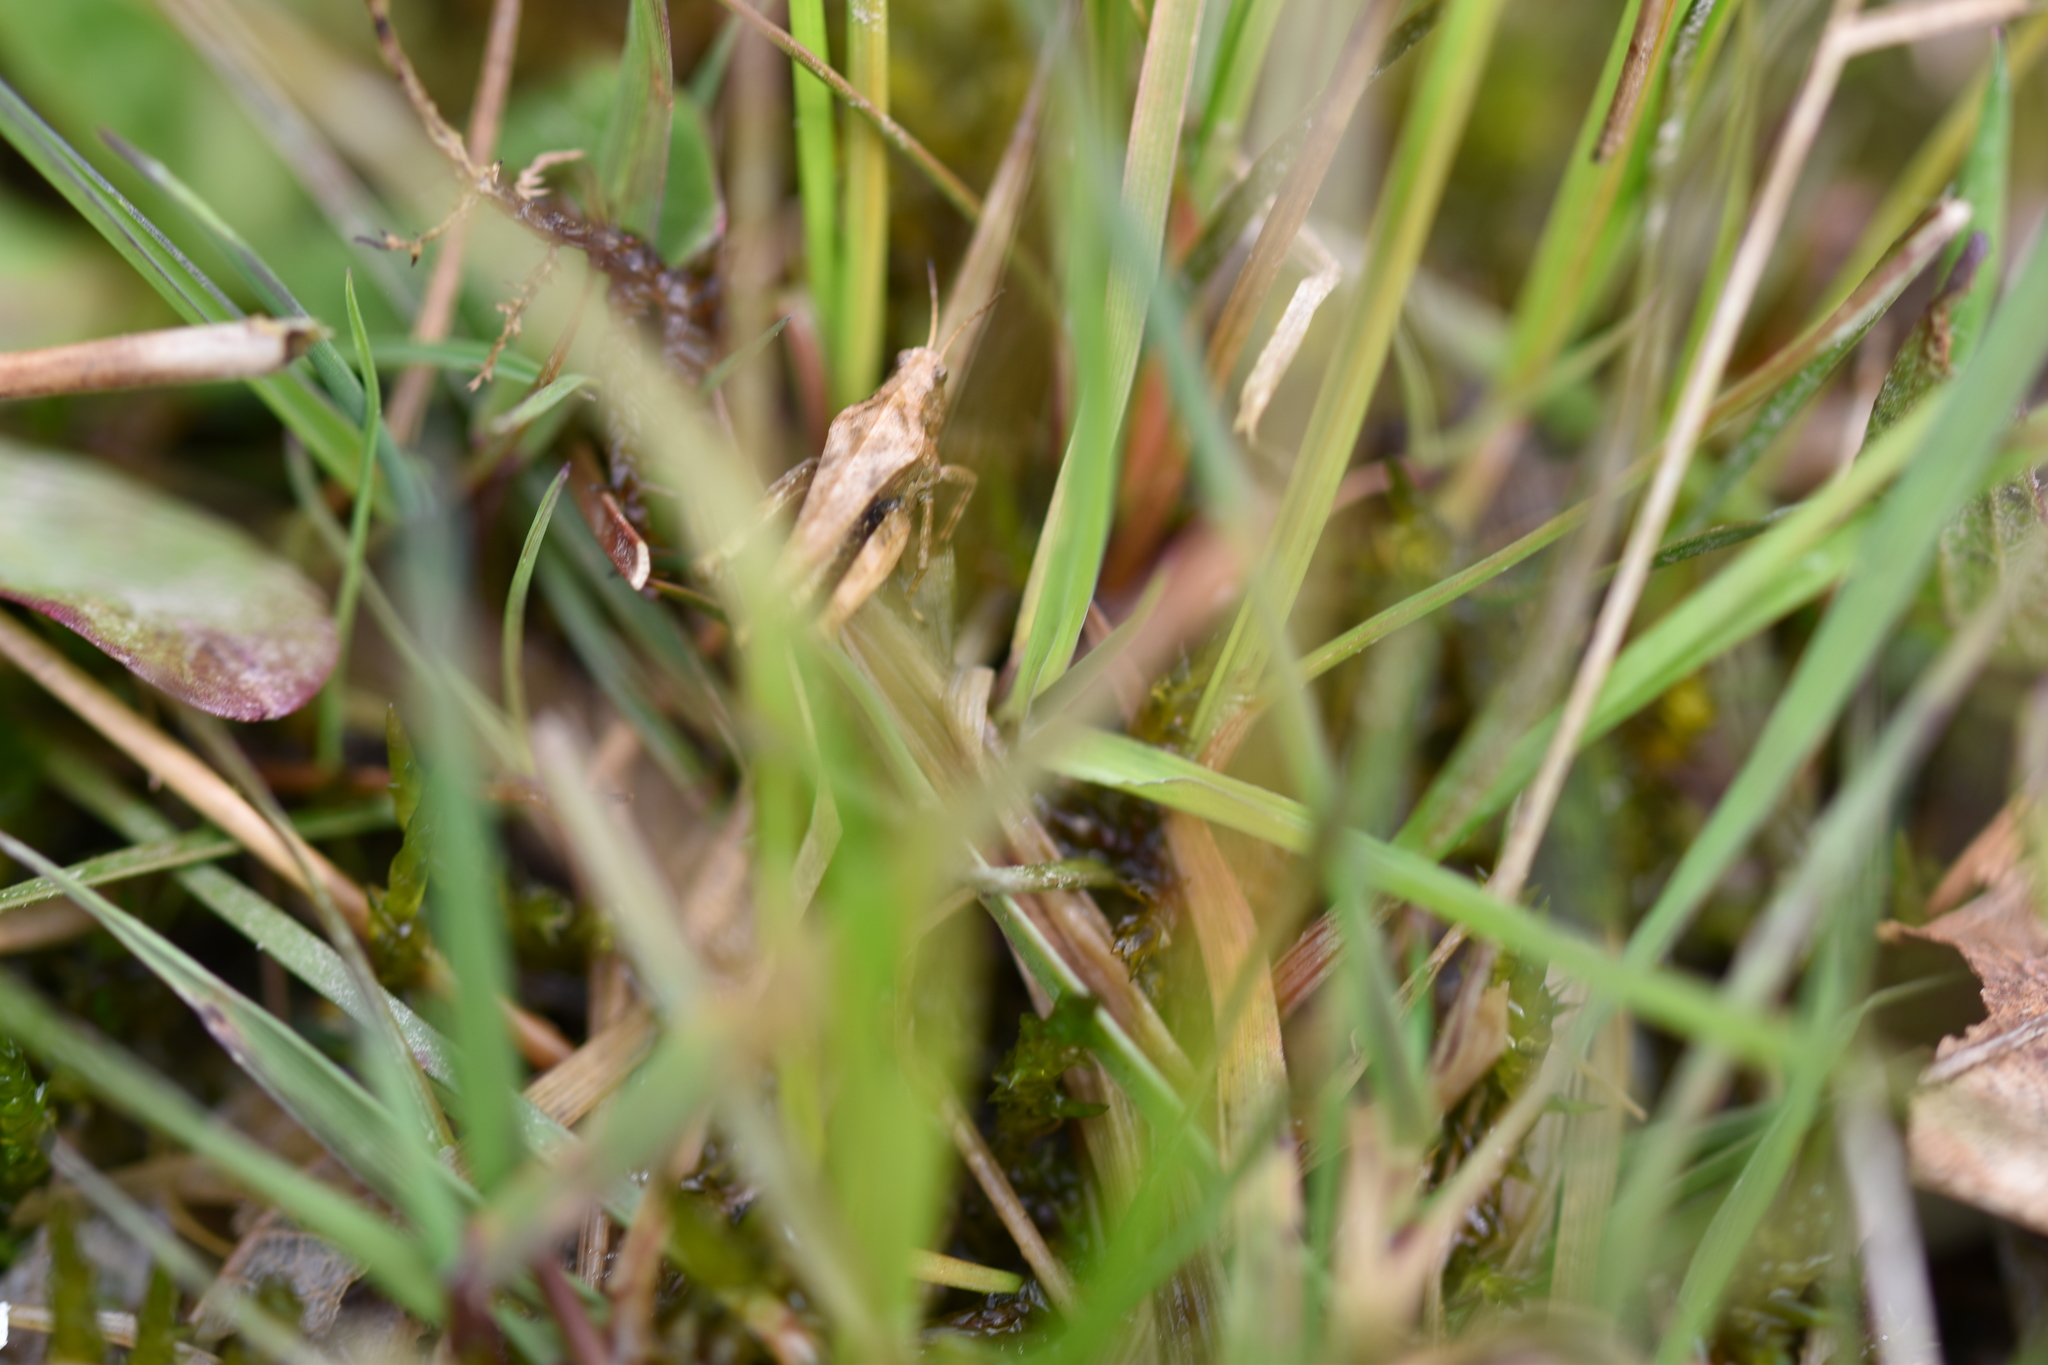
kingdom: Animalia
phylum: Arthropoda
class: Insecta
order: Orthoptera
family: Tetrigidae
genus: Tetrix
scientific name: Tetrix subulata
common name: Slender ground-hopper
